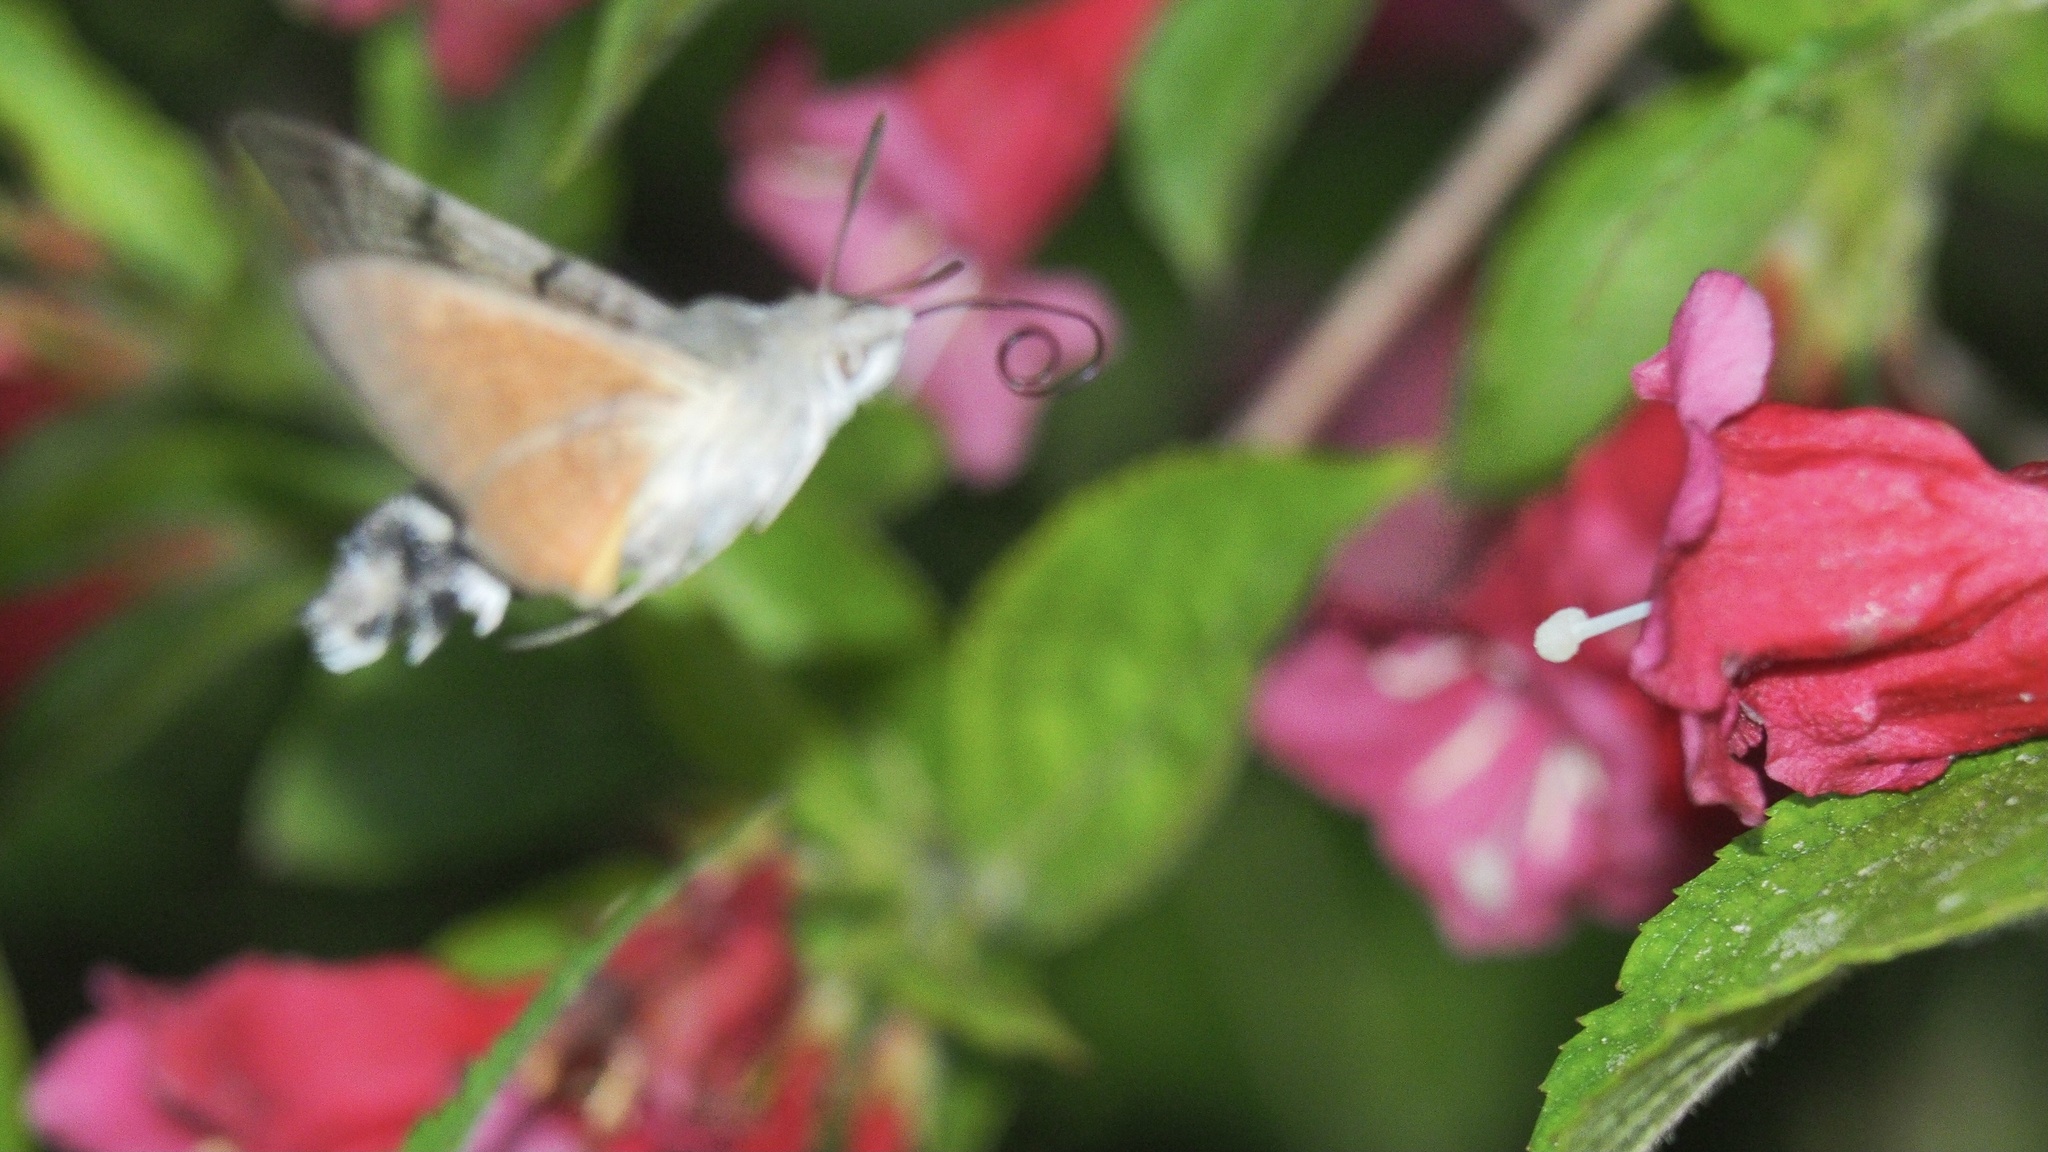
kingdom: Animalia
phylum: Arthropoda
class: Insecta
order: Lepidoptera
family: Sphingidae
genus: Macroglossum
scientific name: Macroglossum stellatarum
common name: Humming-bird hawk-moth
